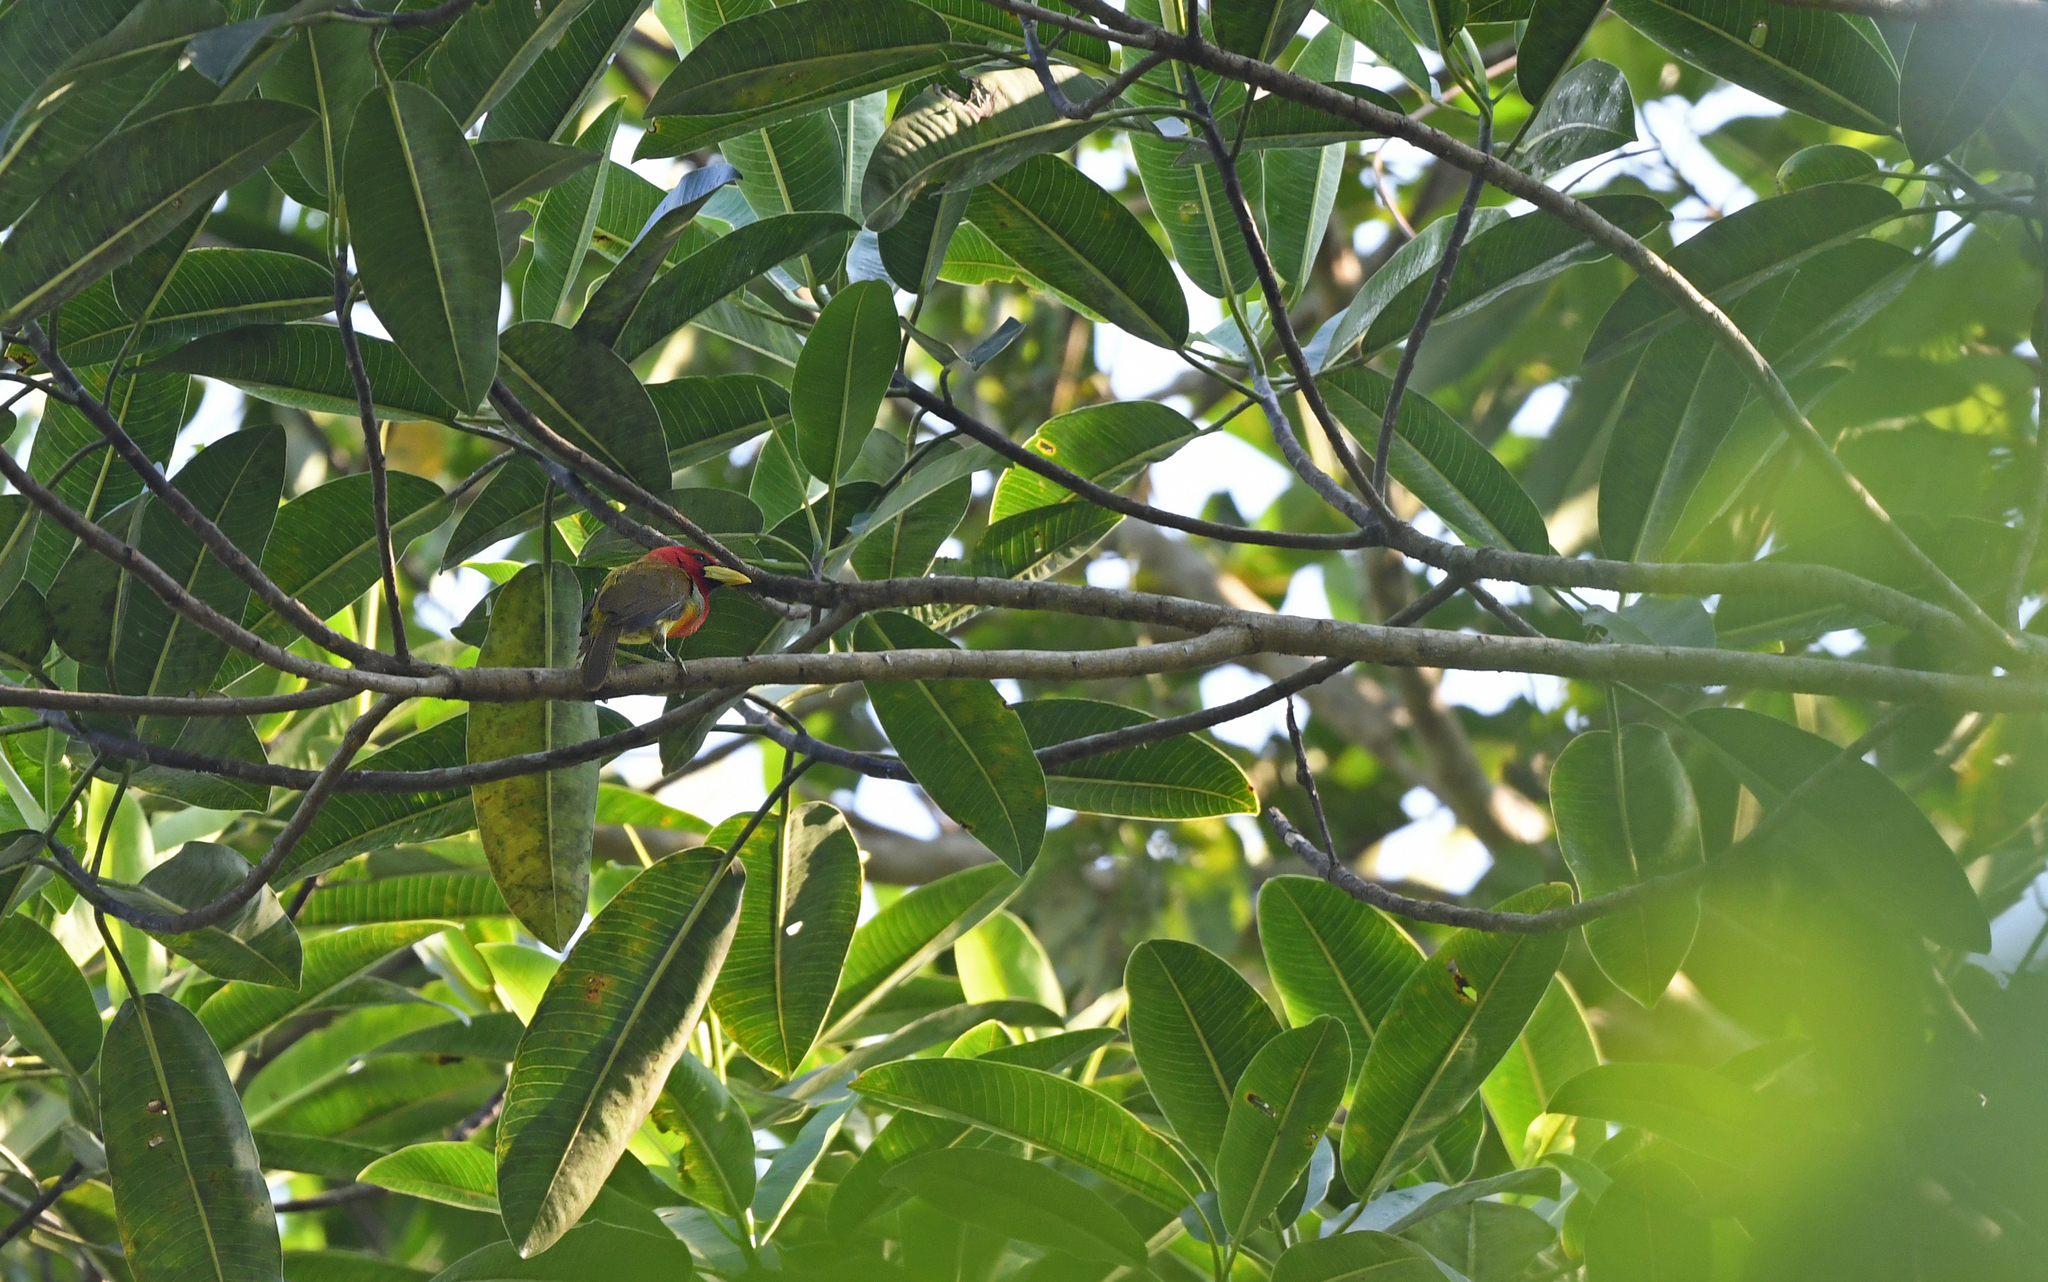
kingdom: Animalia
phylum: Chordata
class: Aves
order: Piciformes
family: Capitonidae
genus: Eubucco
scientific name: Eubucco tucinkae
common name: Scarlet-hooded barbet
